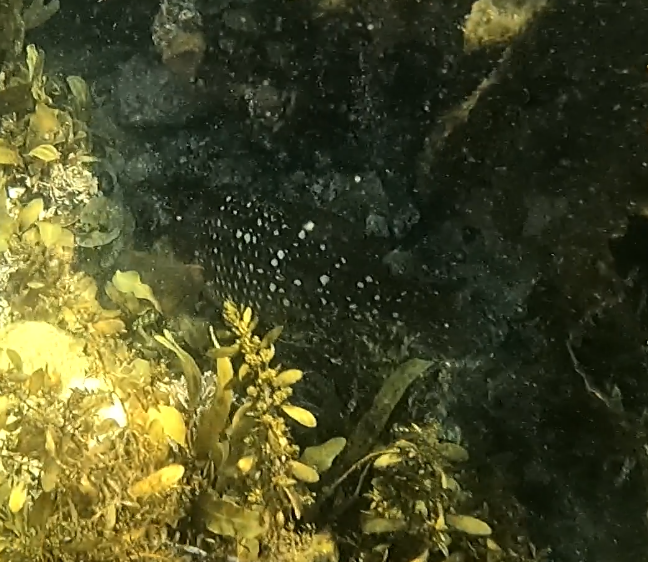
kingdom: Animalia
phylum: Chordata
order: Perciformes
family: Labridae
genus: Notolabrus
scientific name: Notolabrus gymnogenis
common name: Crimson banded wrasse
